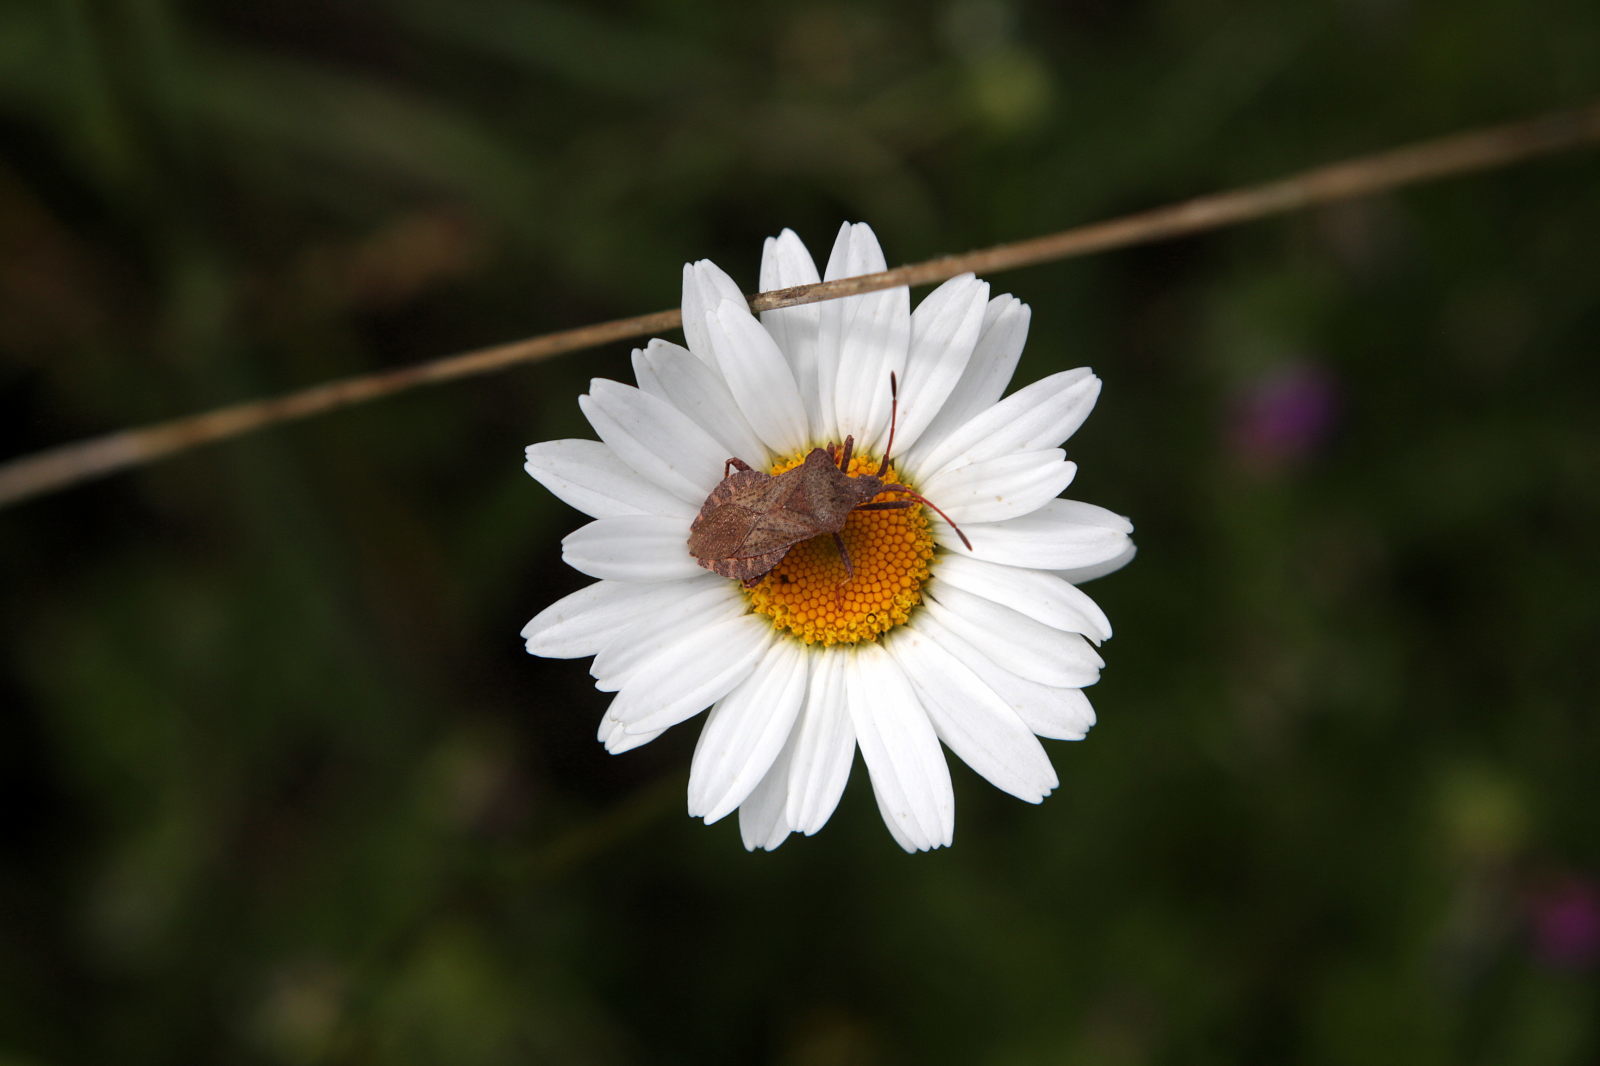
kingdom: Animalia
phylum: Arthropoda
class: Insecta
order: Hemiptera
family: Coreidae
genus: Coreus
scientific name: Coreus marginatus
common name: Dock bug
